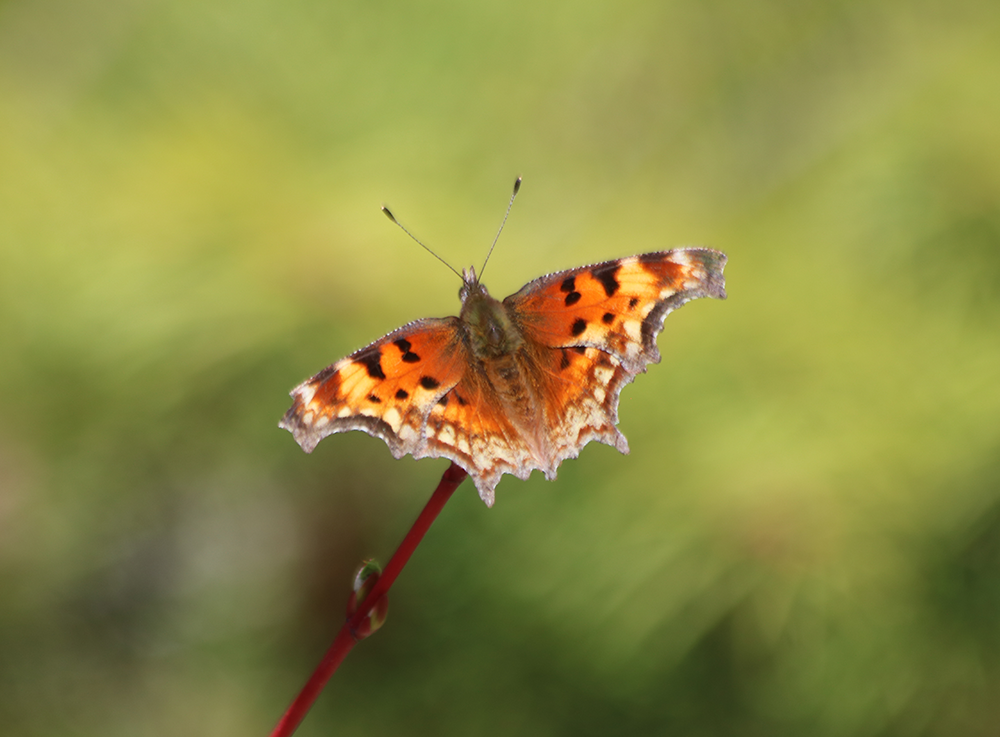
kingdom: Animalia
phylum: Arthropoda
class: Insecta
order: Lepidoptera
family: Nymphalidae
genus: Polygonia
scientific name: Polygonia gracilis
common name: Hoary comma
